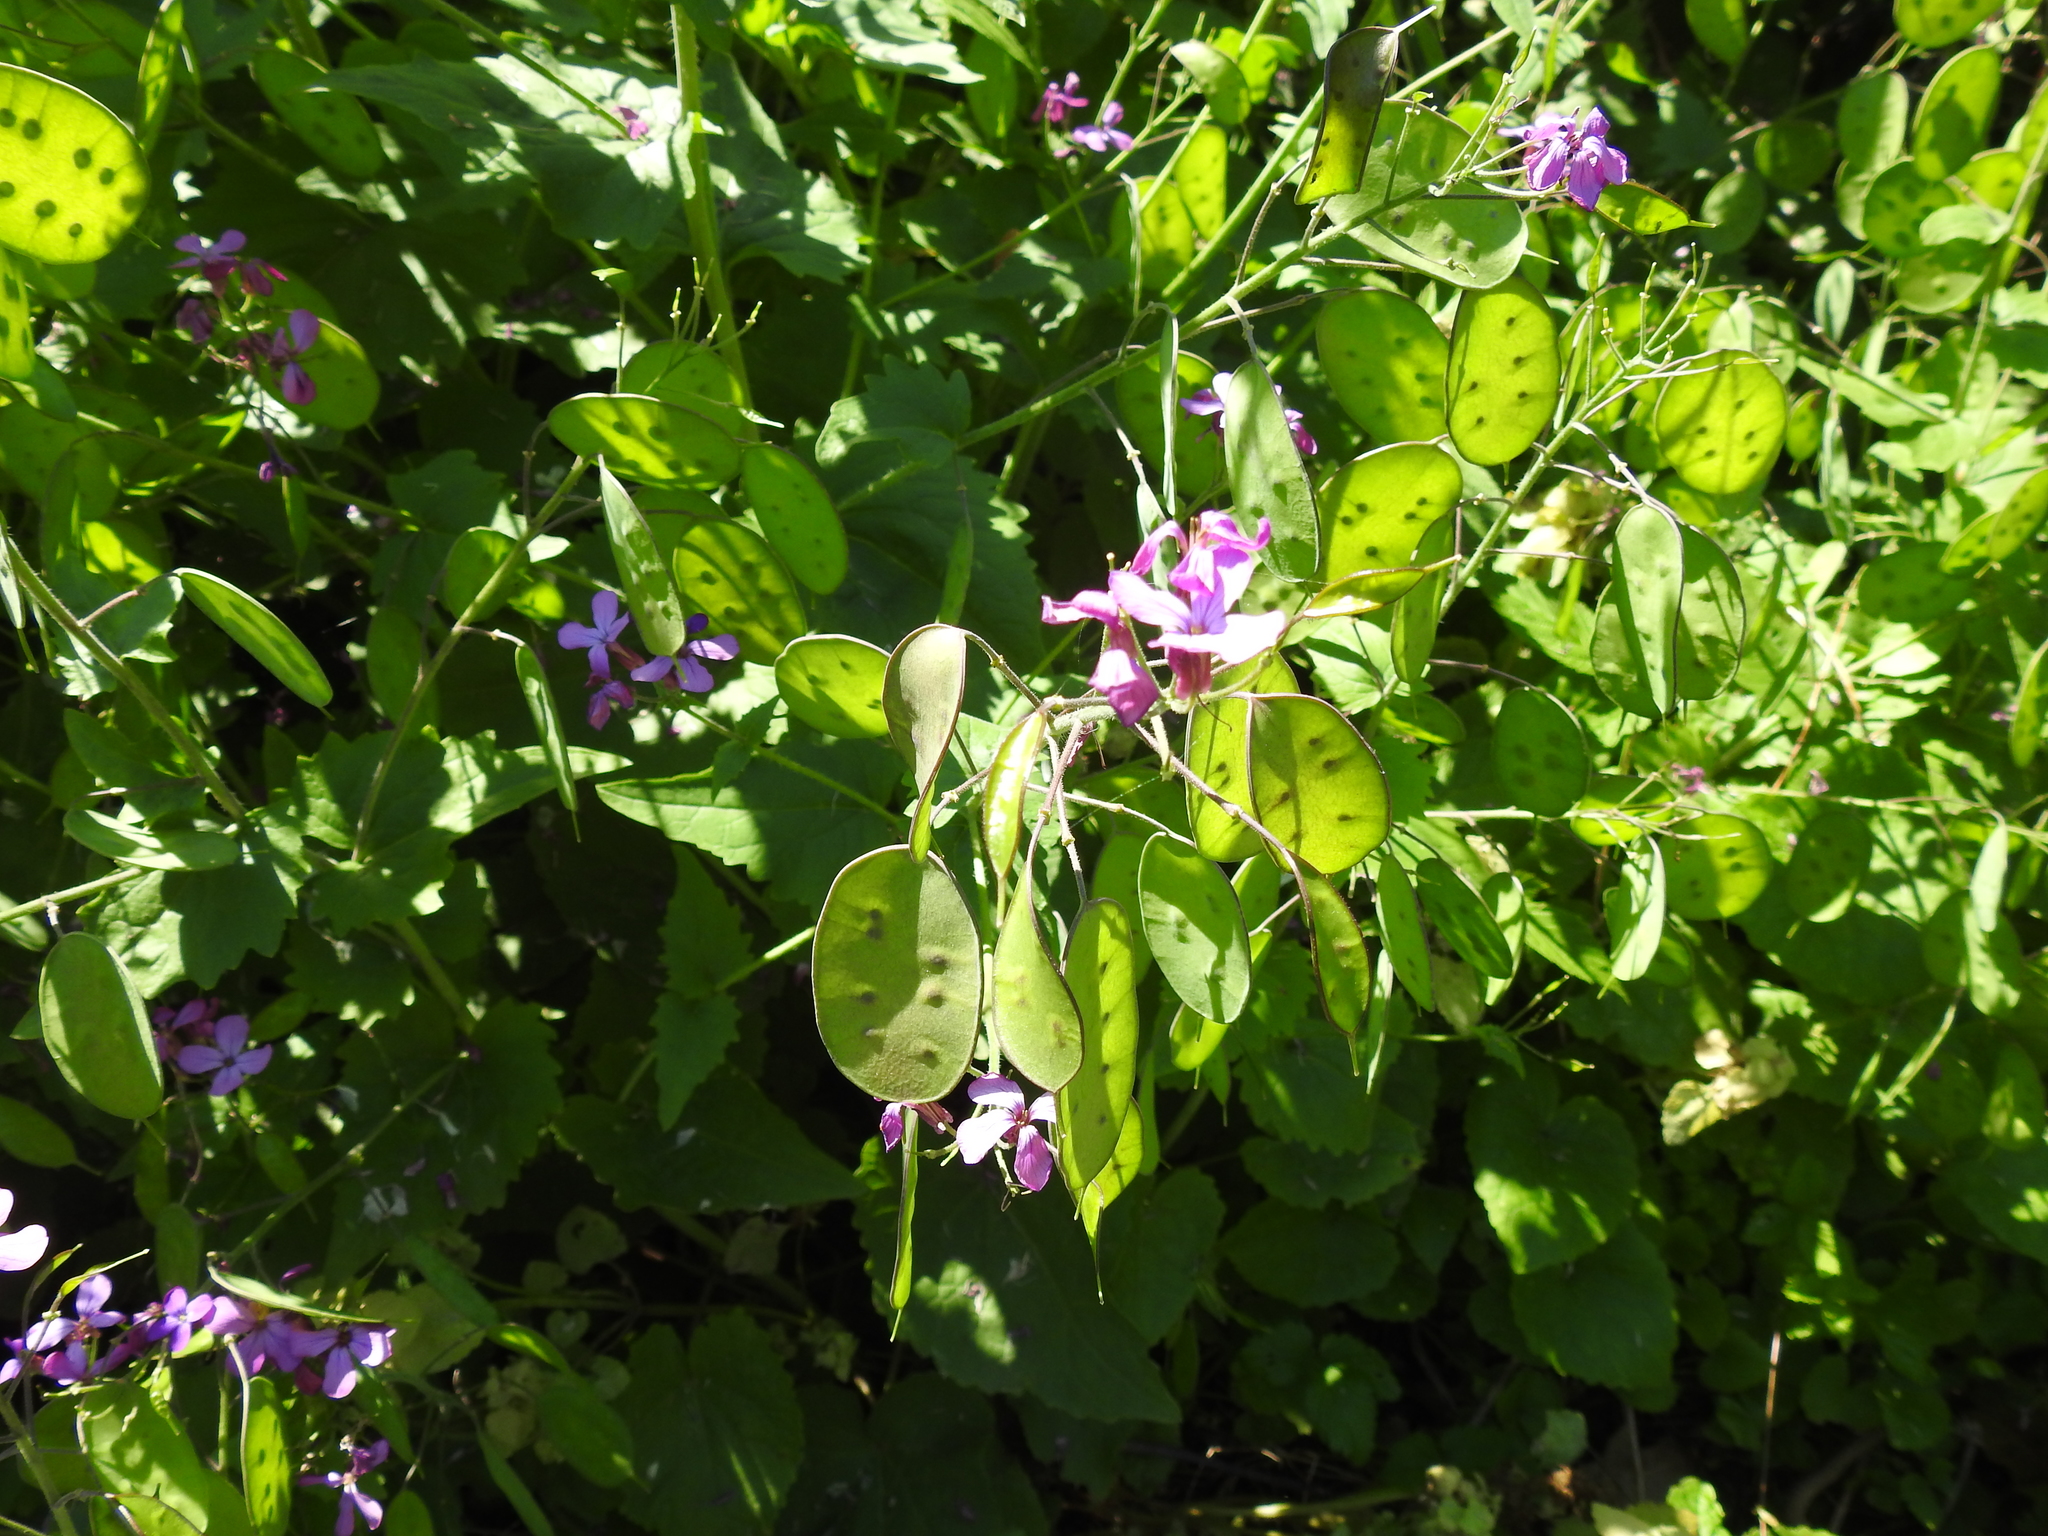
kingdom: Plantae
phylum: Tracheophyta
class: Magnoliopsida
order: Brassicales
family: Brassicaceae
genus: Lunaria
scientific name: Lunaria annua
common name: Honesty
